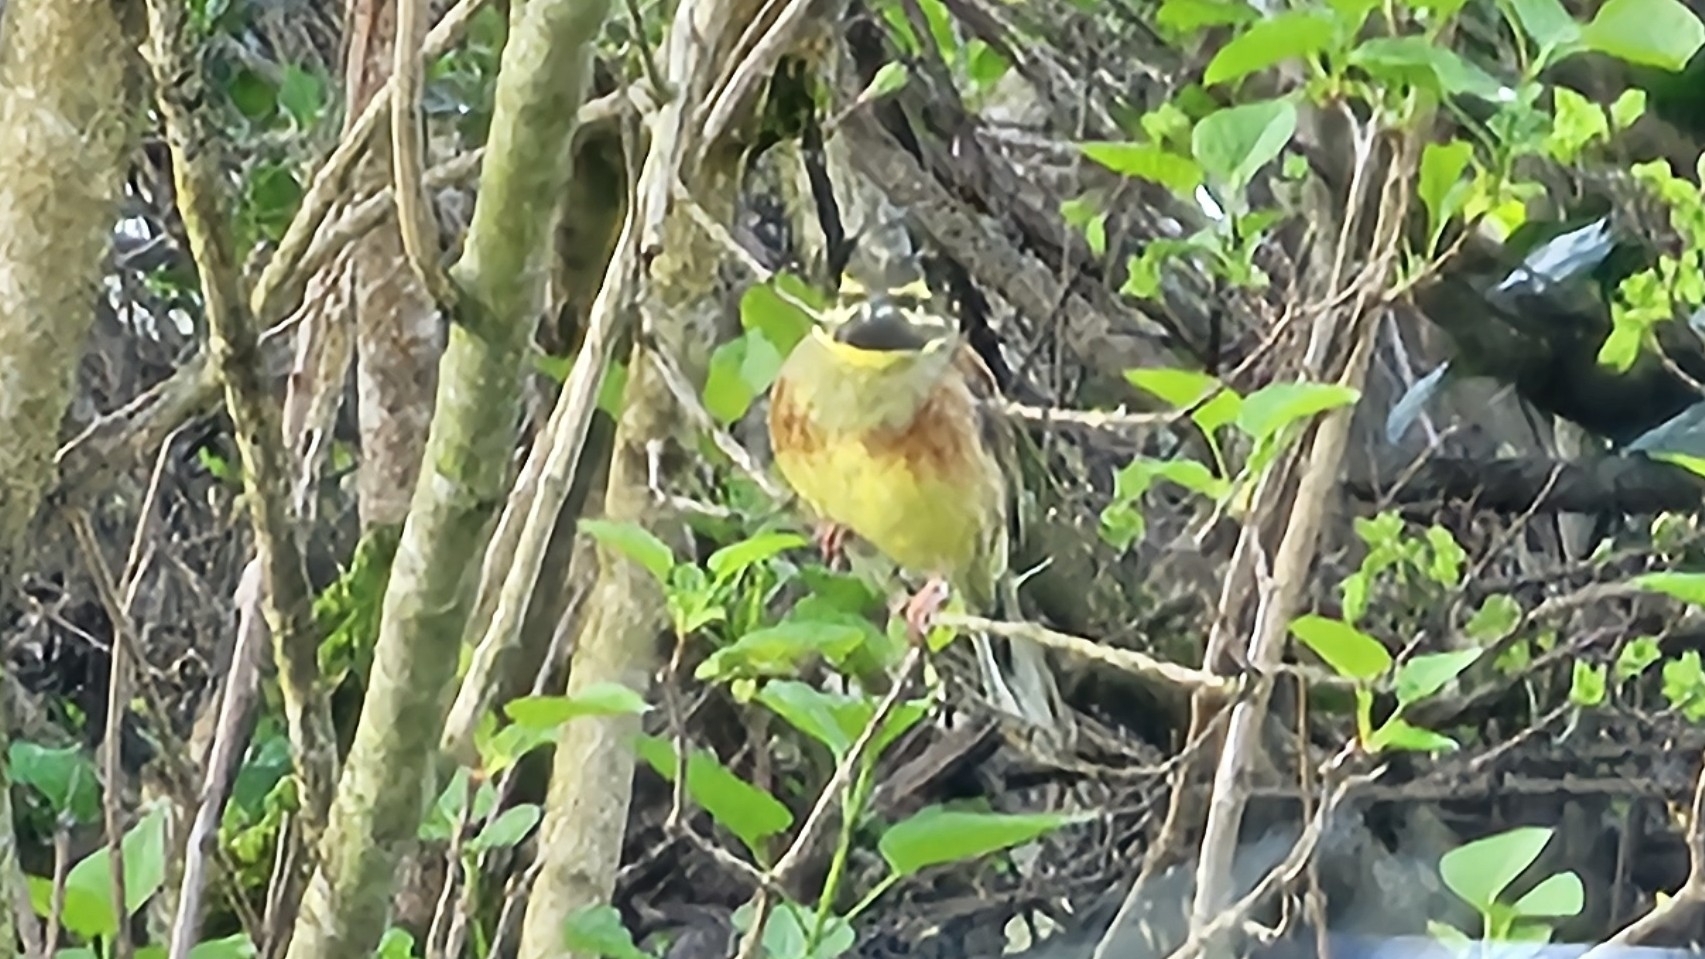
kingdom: Animalia
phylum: Chordata
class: Aves
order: Passeriformes
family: Emberizidae
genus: Emberiza
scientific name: Emberiza cirlus
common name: Cirl bunting
